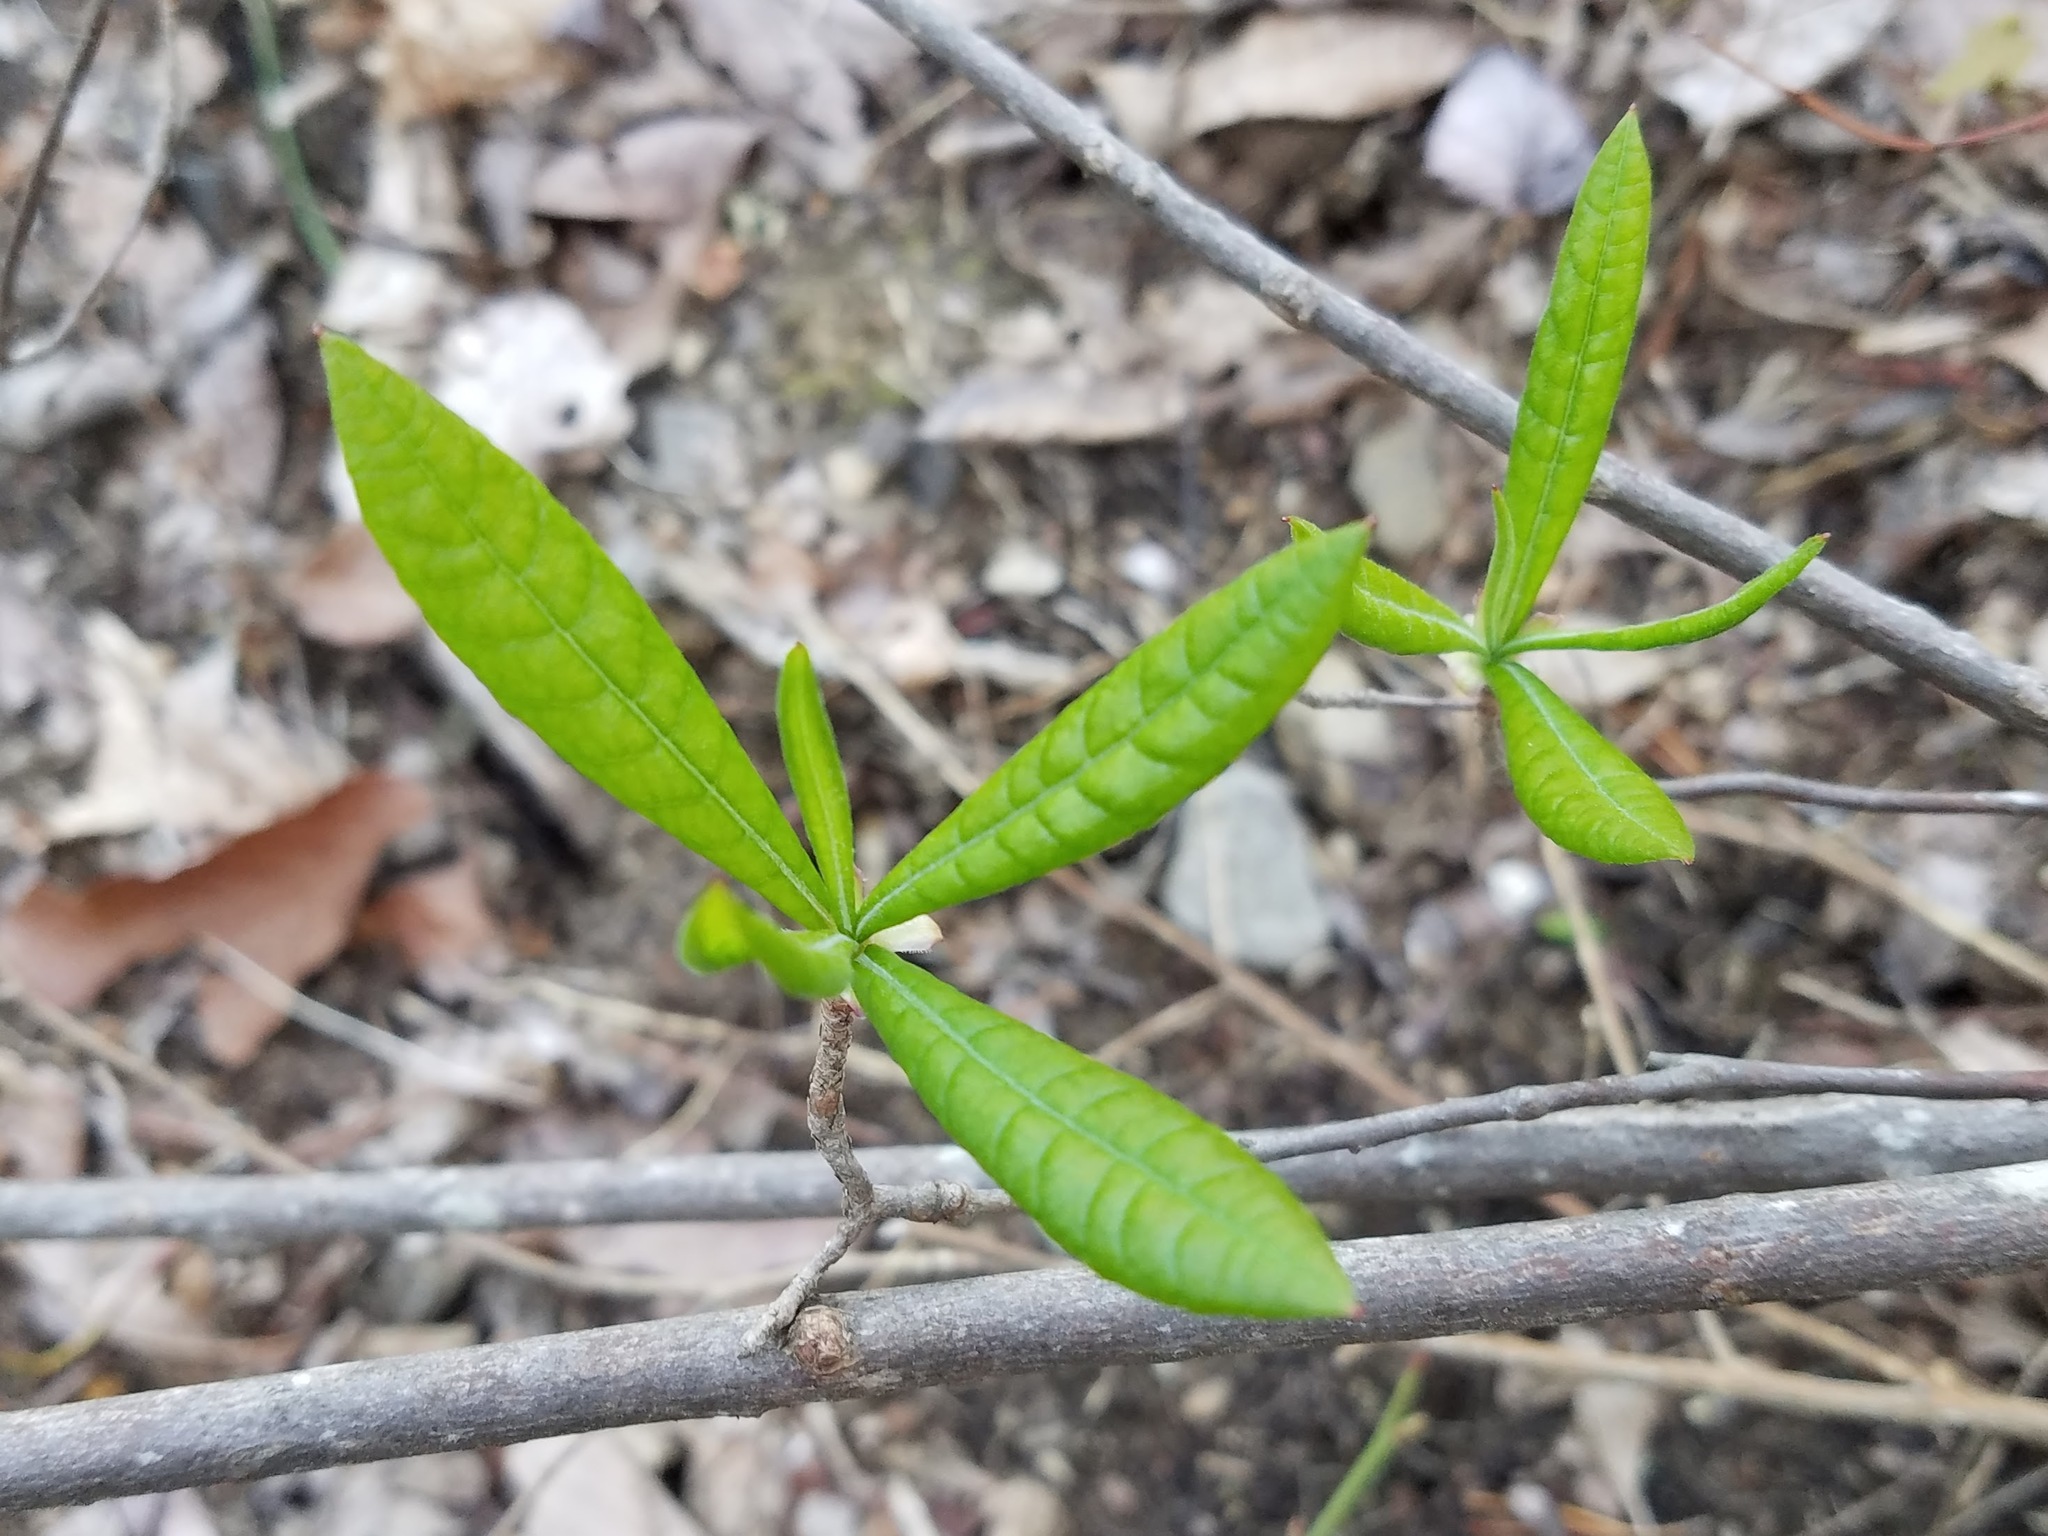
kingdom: Plantae
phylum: Tracheophyta
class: Magnoliopsida
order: Ericales
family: Ericaceae
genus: Rhododendron
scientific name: Rhododendron canescens
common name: Mountain azalea
